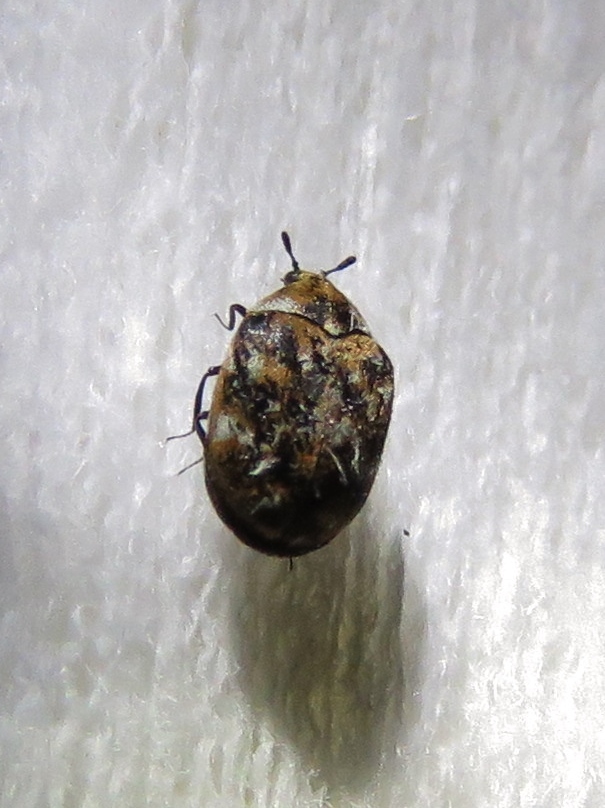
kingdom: Animalia
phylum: Arthropoda
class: Insecta
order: Coleoptera
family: Dermestidae
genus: Anthrenus
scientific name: Anthrenus verbasci
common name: Varied carpet beetle
